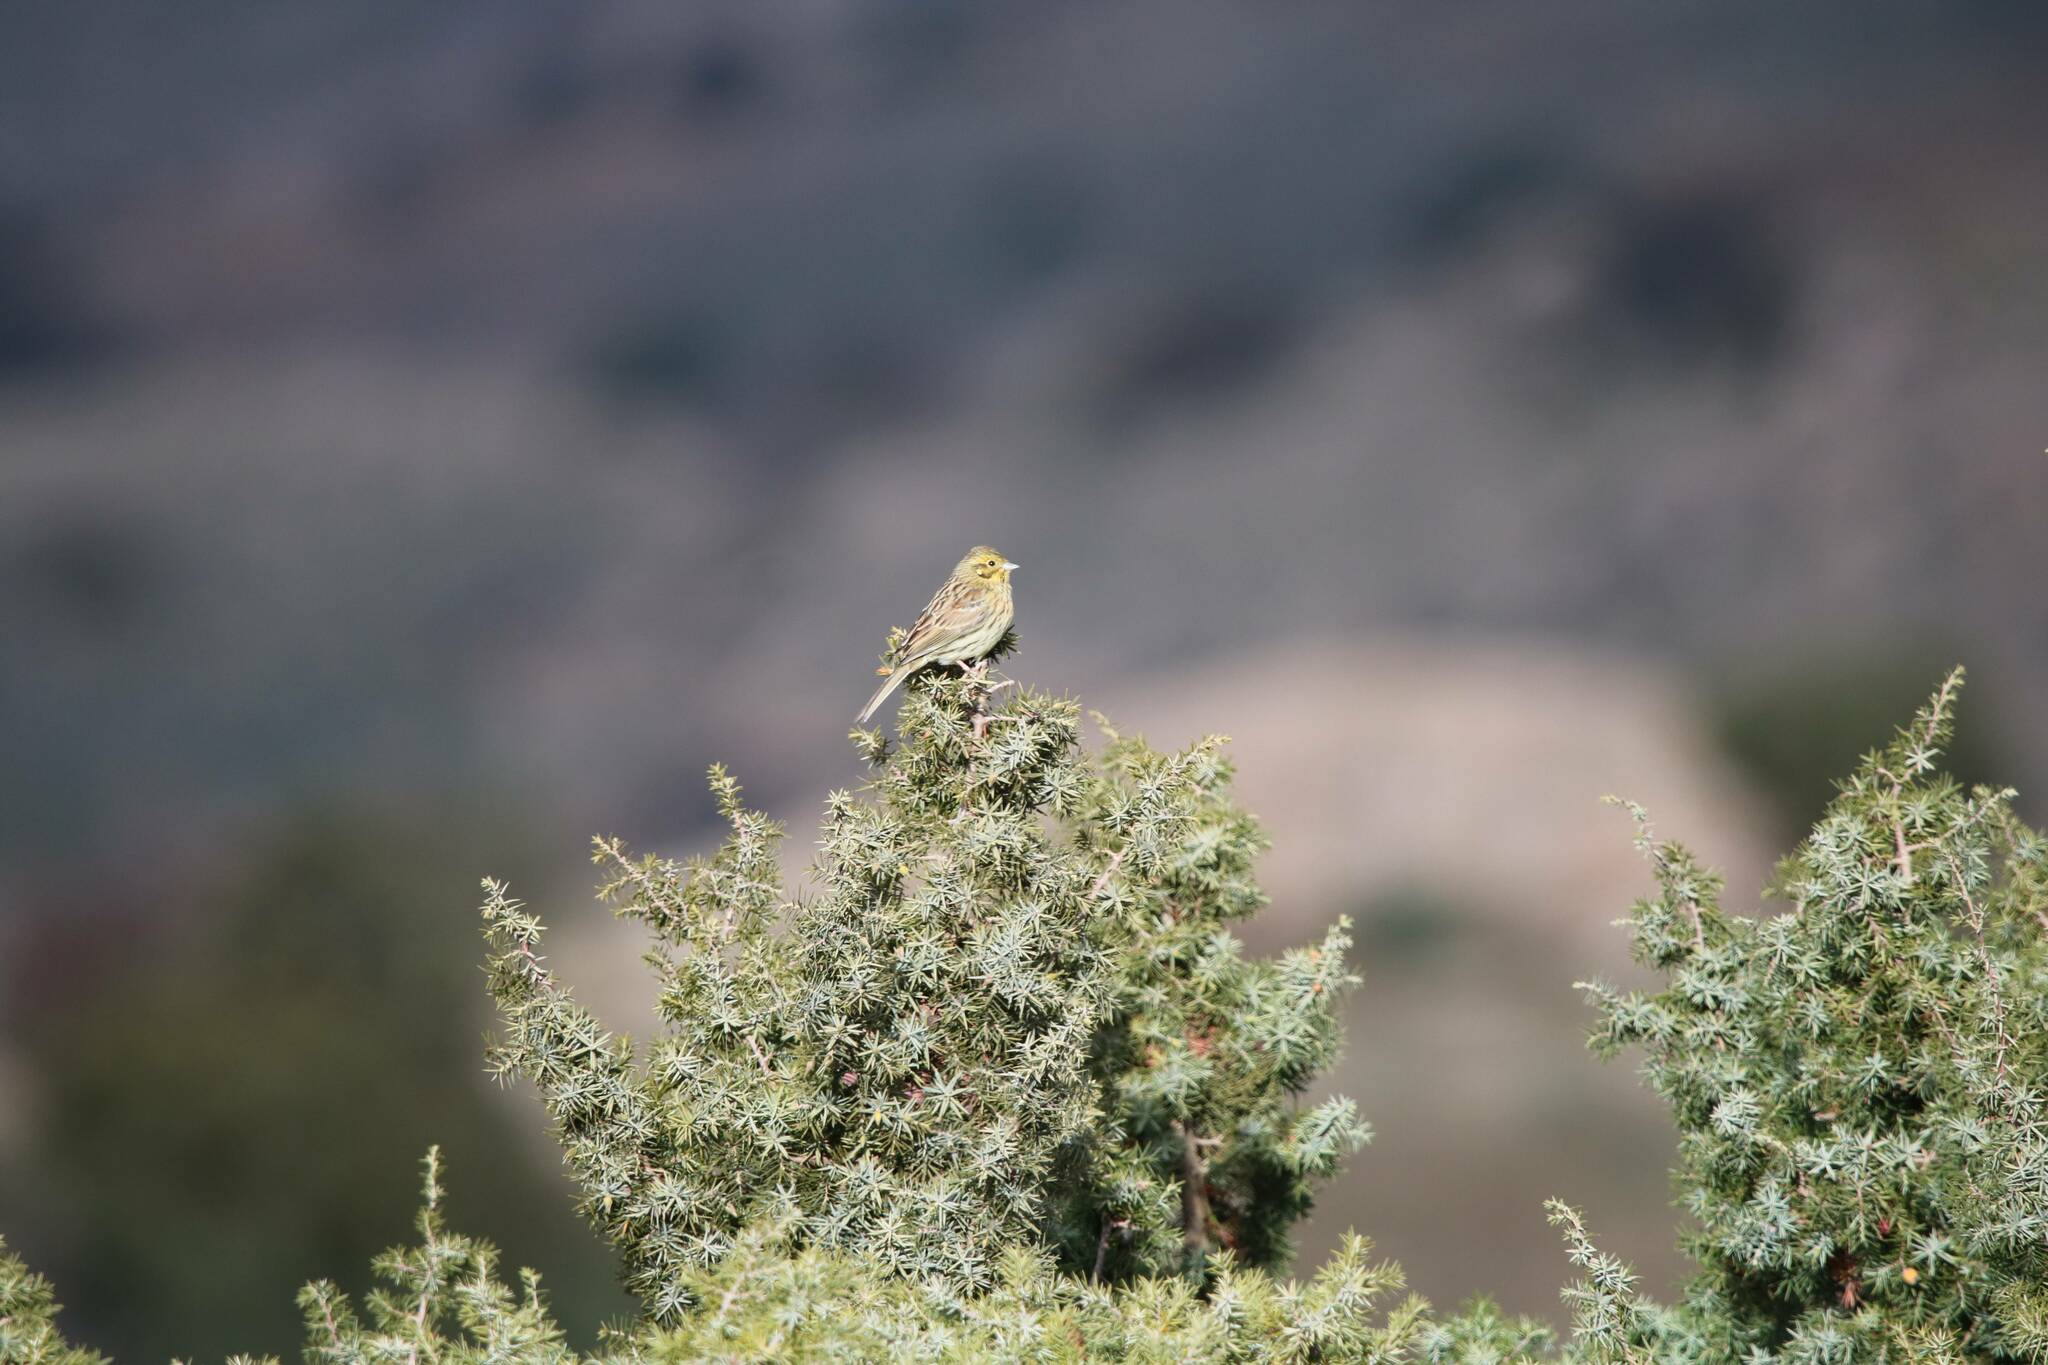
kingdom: Animalia
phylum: Chordata
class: Aves
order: Passeriformes
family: Emberizidae
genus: Emberiza
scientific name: Emberiza cirlus
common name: Cirl bunting
